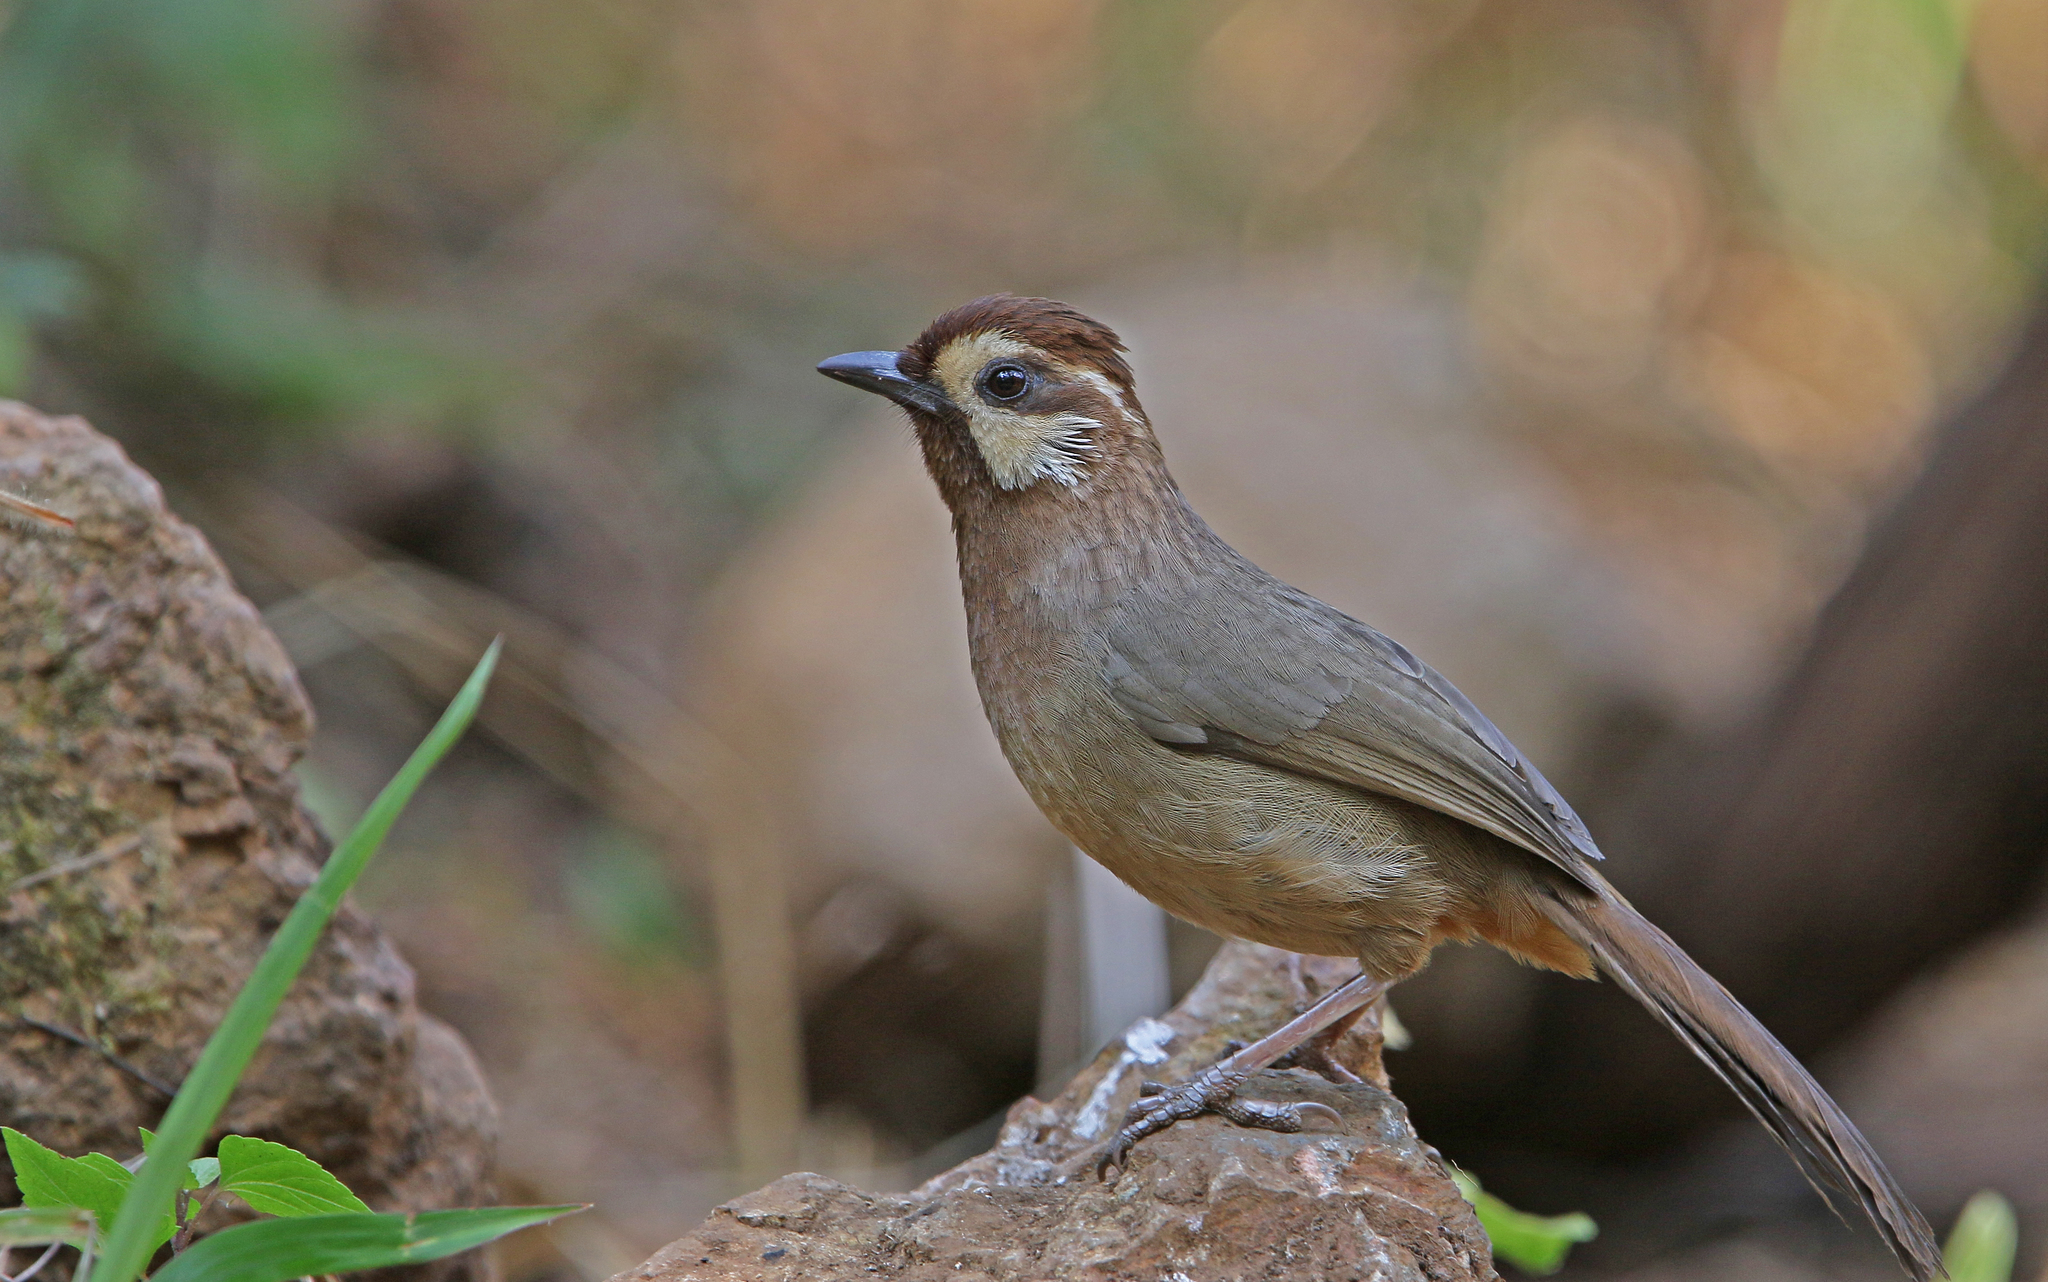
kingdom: Animalia
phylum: Chordata
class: Aves
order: Passeriformes
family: Leiothrichidae
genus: Pterorhinus
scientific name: Pterorhinus sannio
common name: White-browed laughingthrush
